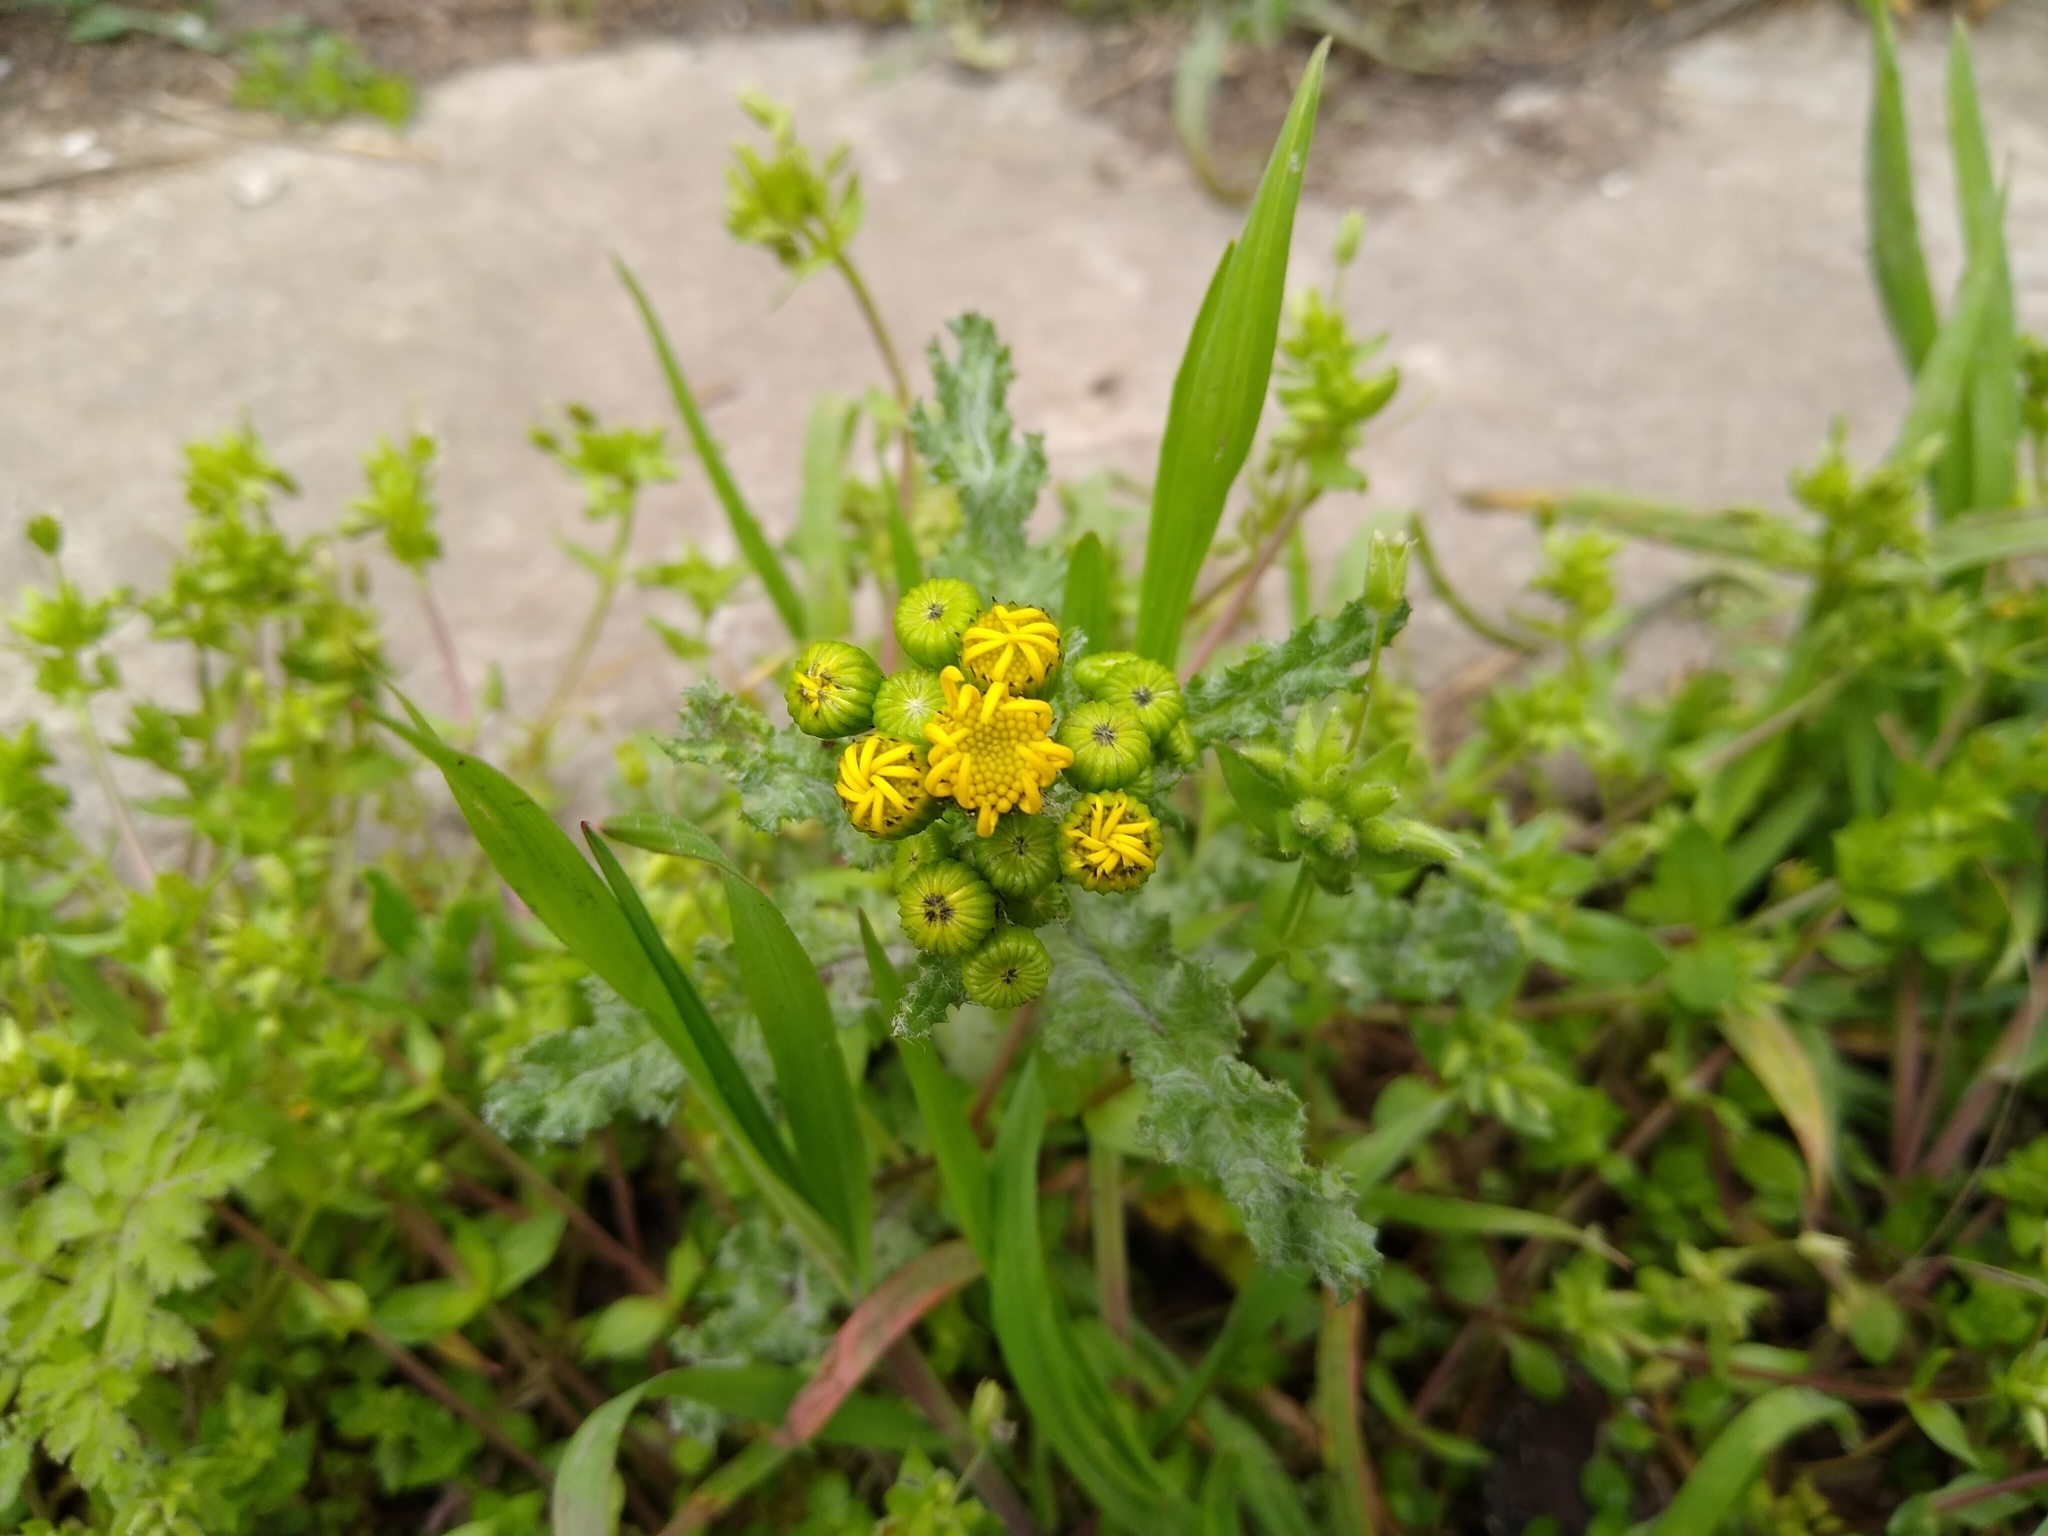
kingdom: Plantae
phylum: Tracheophyta
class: Magnoliopsida
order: Asterales
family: Asteraceae
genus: Senecio
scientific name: Senecio vernalis
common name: Eastern groundsel
